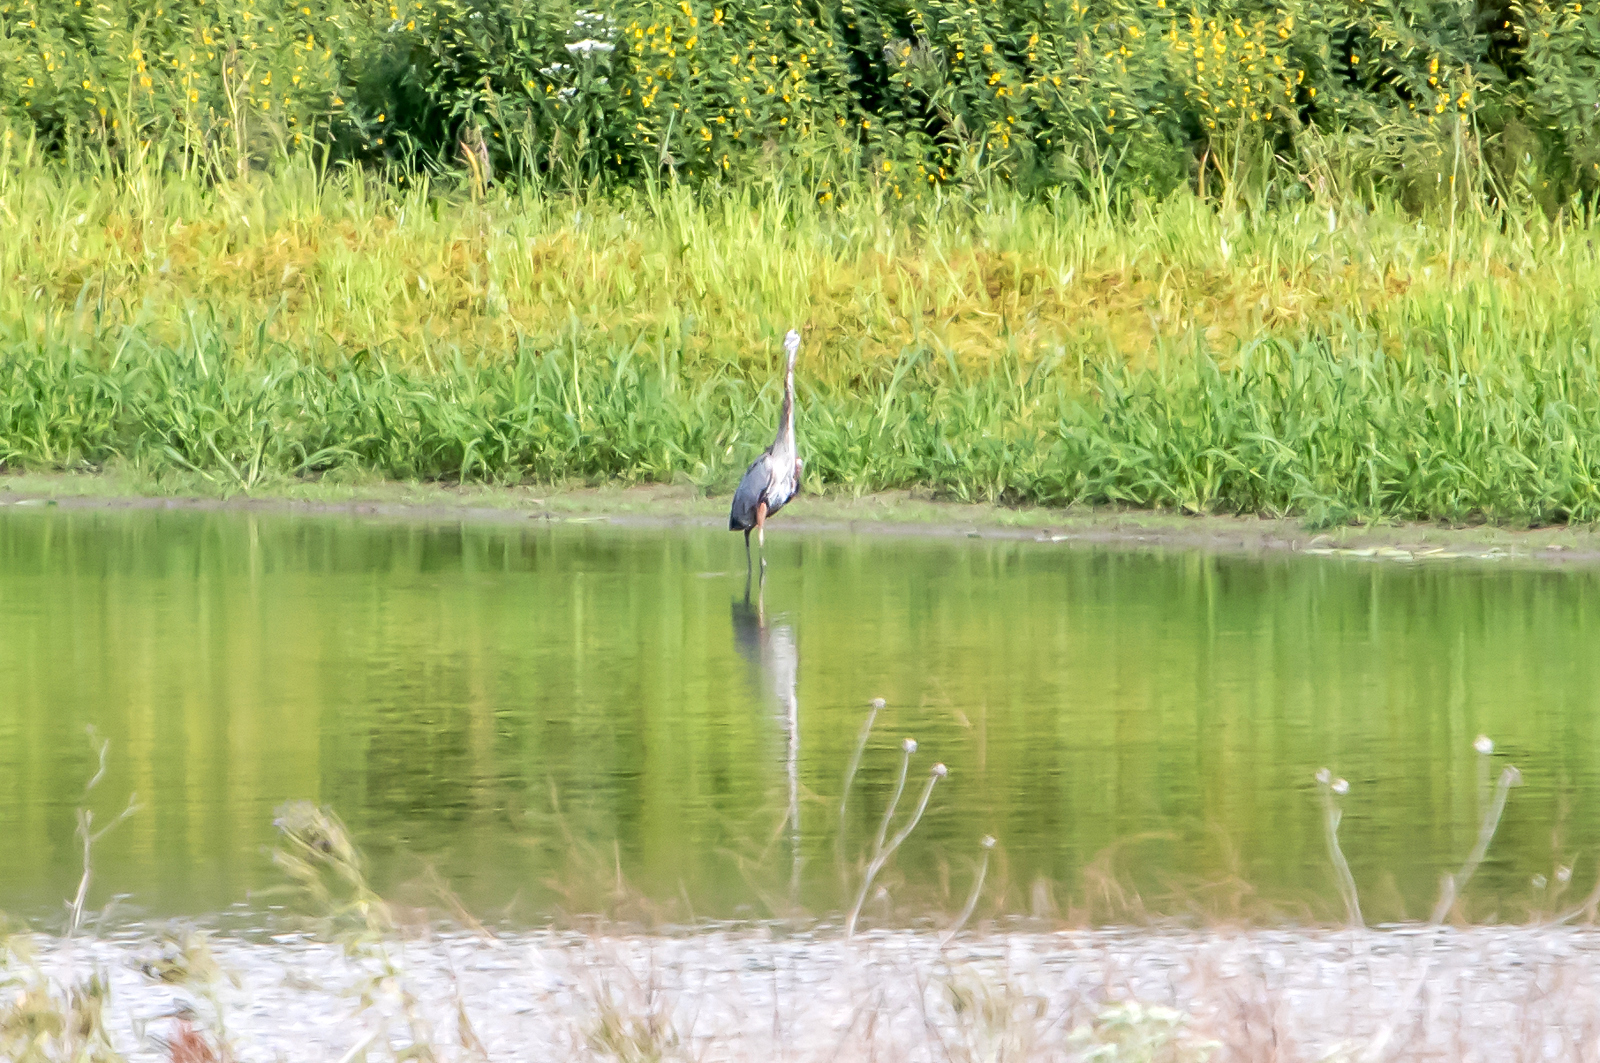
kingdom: Animalia
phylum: Chordata
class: Aves
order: Pelecaniformes
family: Ardeidae
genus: Ardea
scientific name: Ardea herodias
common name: Great blue heron
